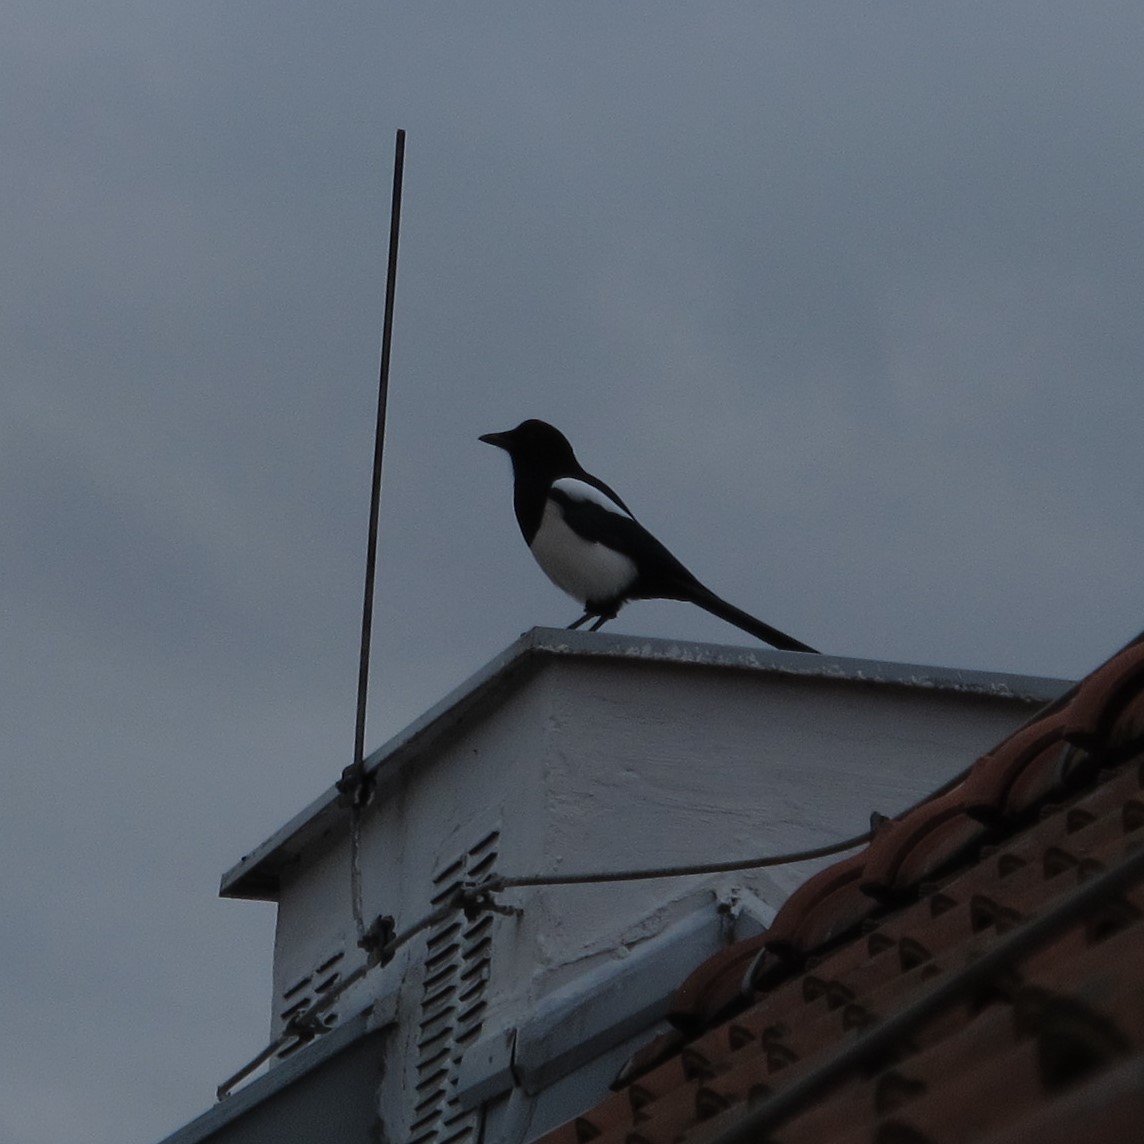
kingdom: Animalia
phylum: Chordata
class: Aves
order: Passeriformes
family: Corvidae
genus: Pica
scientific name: Pica pica
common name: Eurasian magpie
